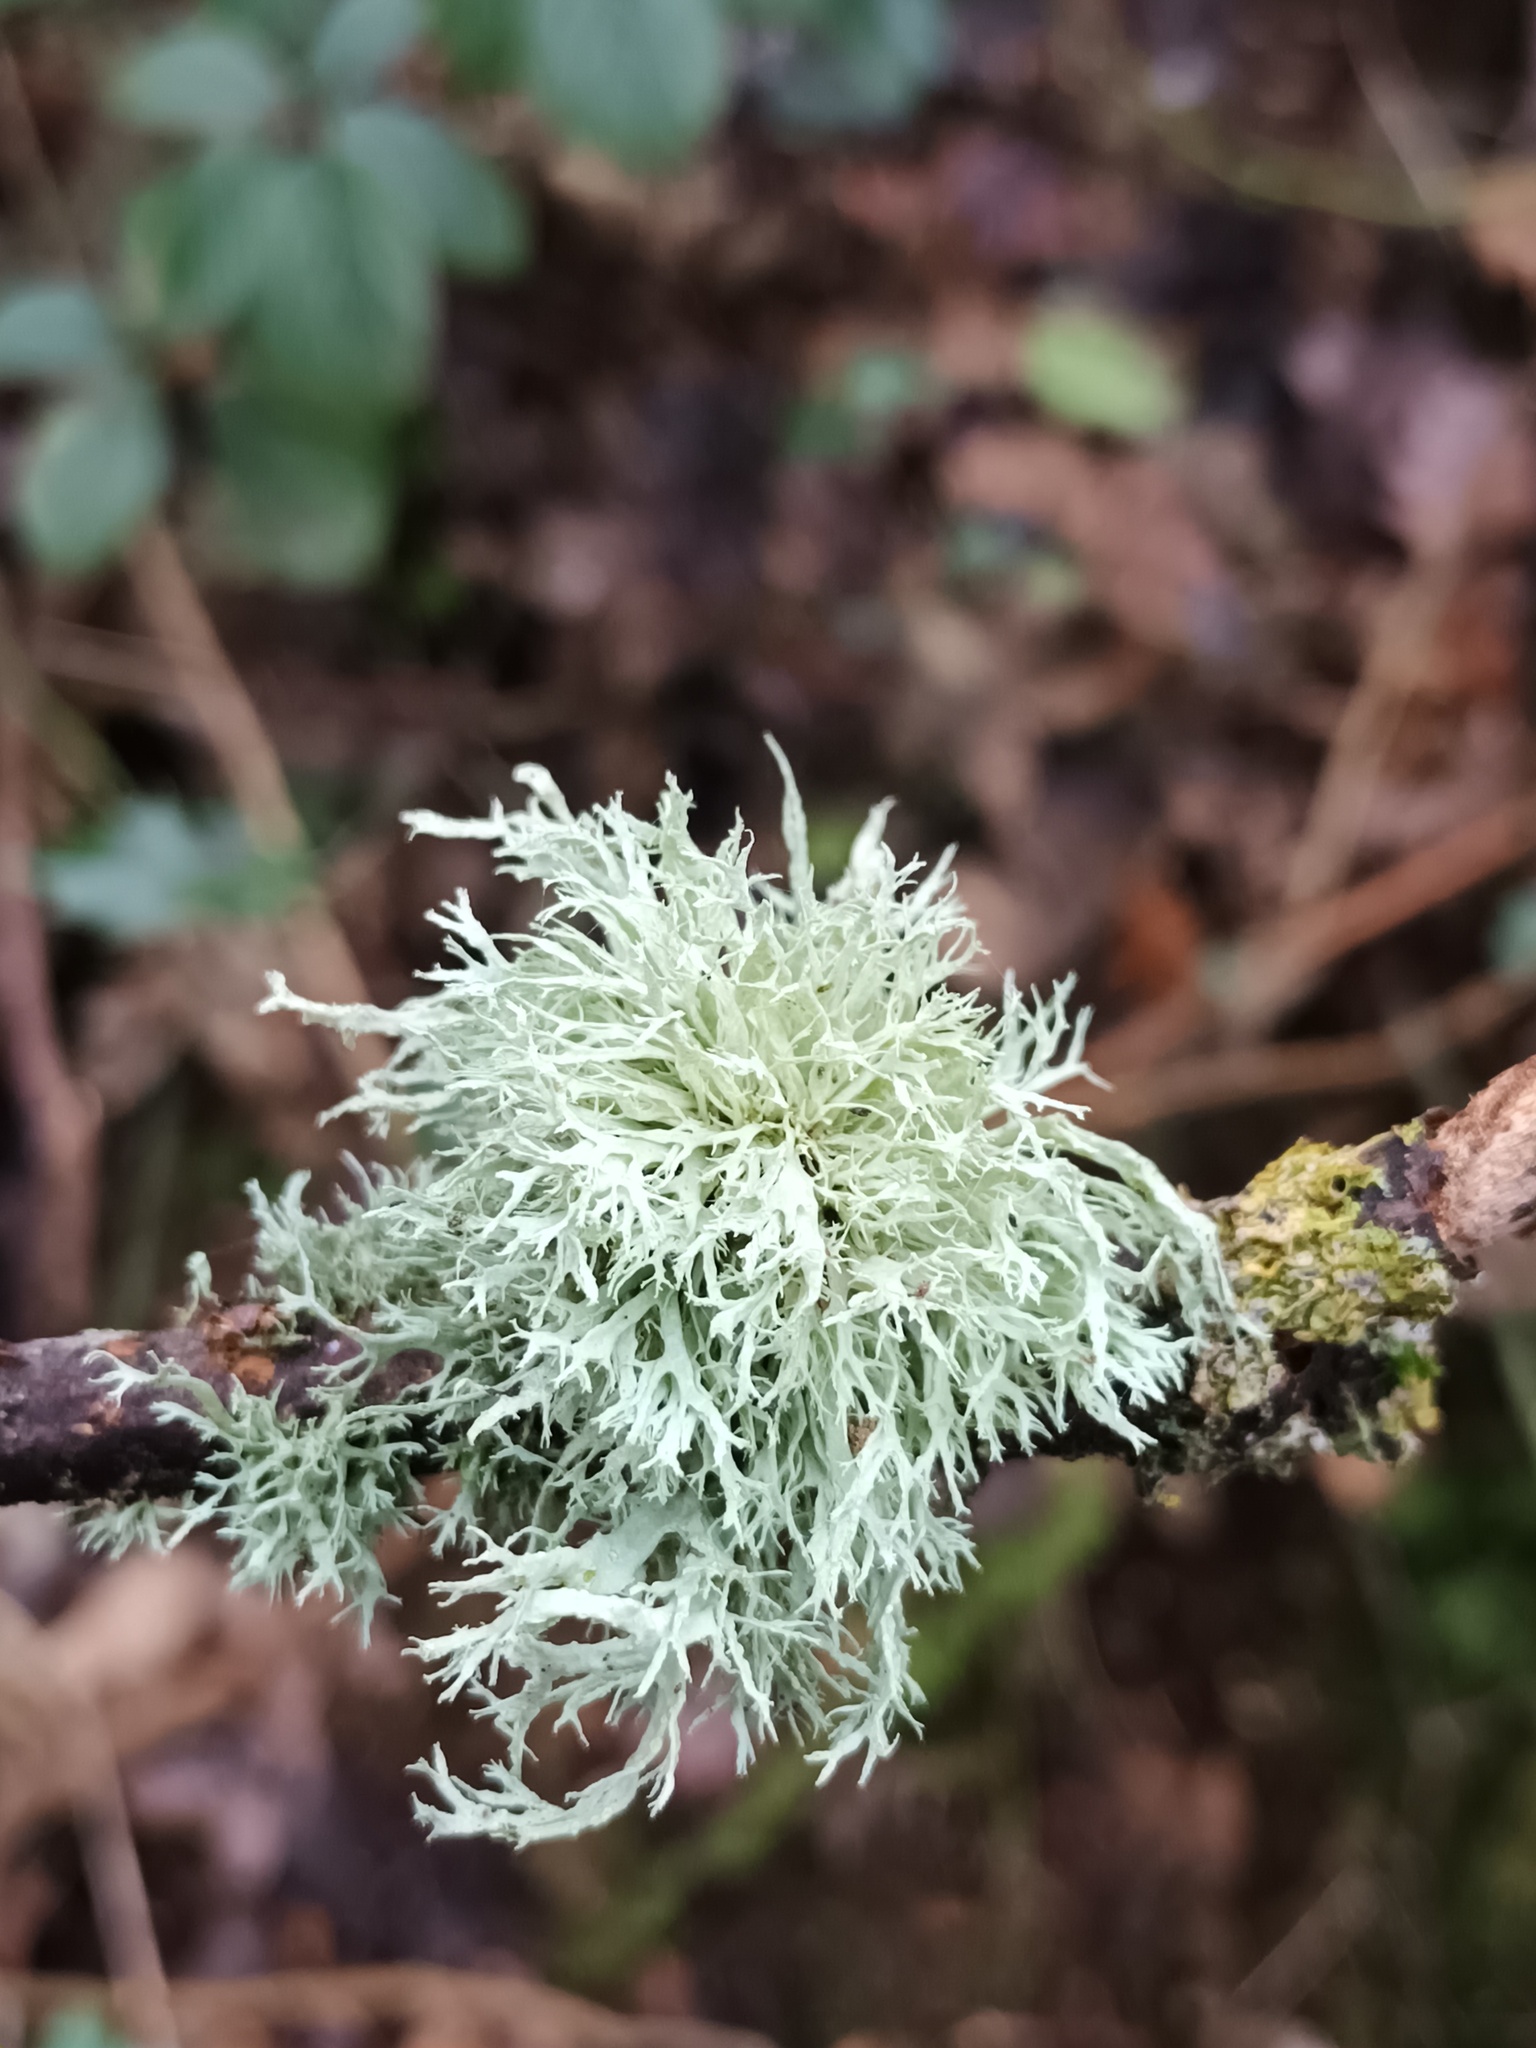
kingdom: Fungi
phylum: Ascomycota
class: Lecanoromycetes
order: Lecanorales
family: Ramalinaceae
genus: Ramalina
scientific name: Ramalina farinacea
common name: Farinose cartilage lichen
